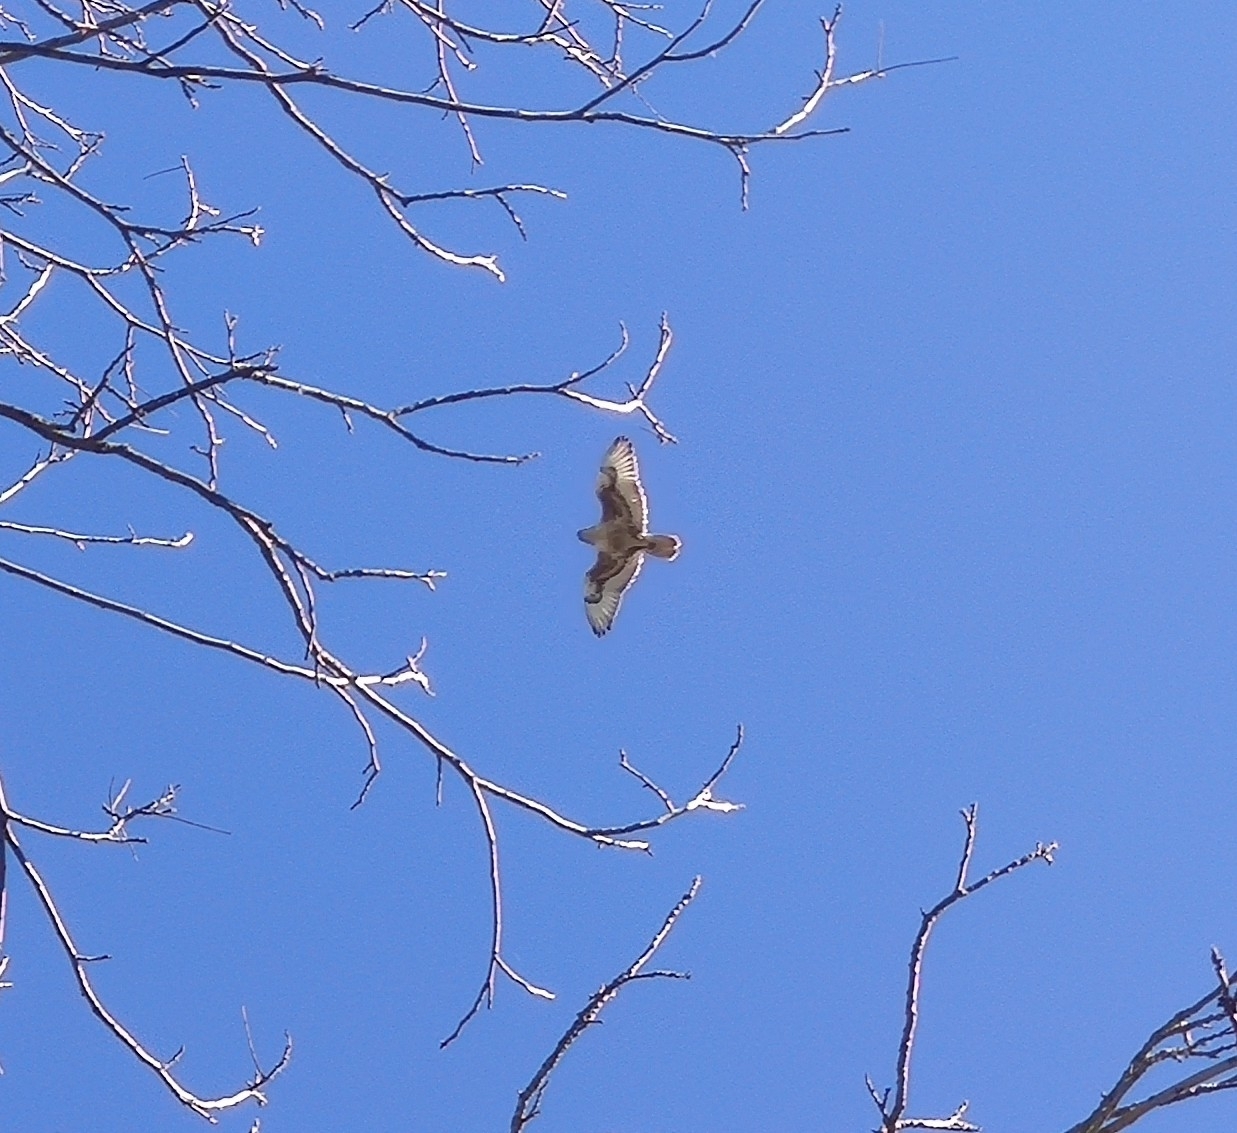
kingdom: Animalia
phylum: Chordata
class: Aves
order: Accipitriformes
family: Accipitridae
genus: Buteo
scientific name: Buteo regalis
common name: Ferruginous hawk
